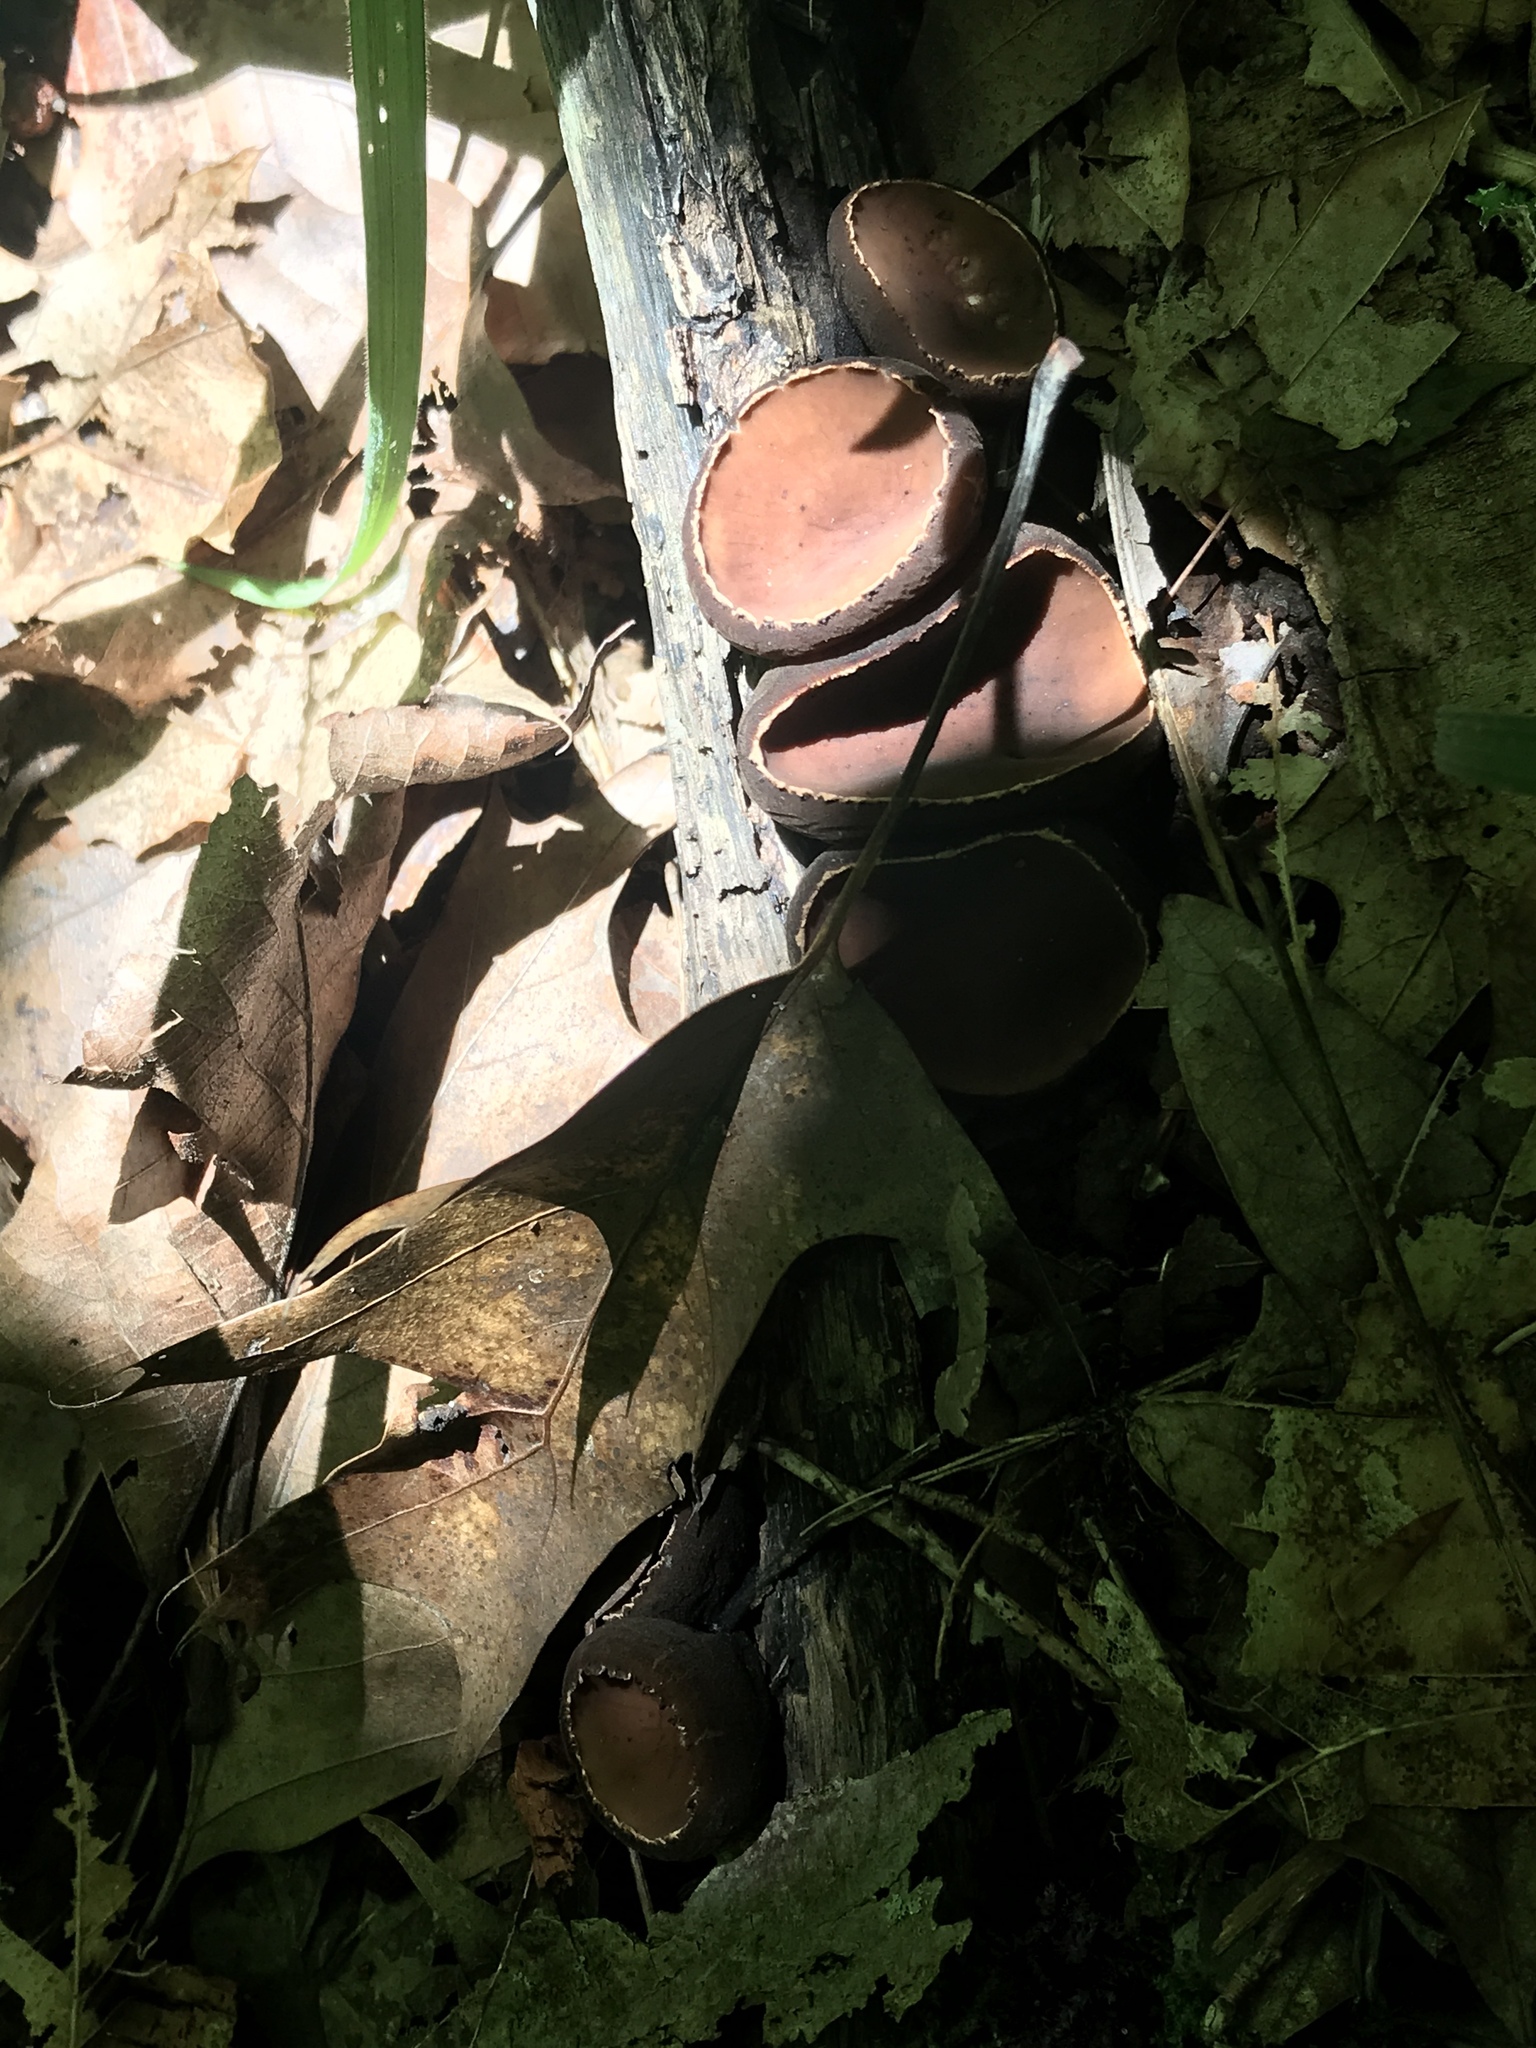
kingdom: Fungi
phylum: Ascomycota
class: Pezizomycetes
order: Pezizales
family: Sarcosomataceae
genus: Galiella
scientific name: Galiella rufa
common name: Hairy rubber cup
